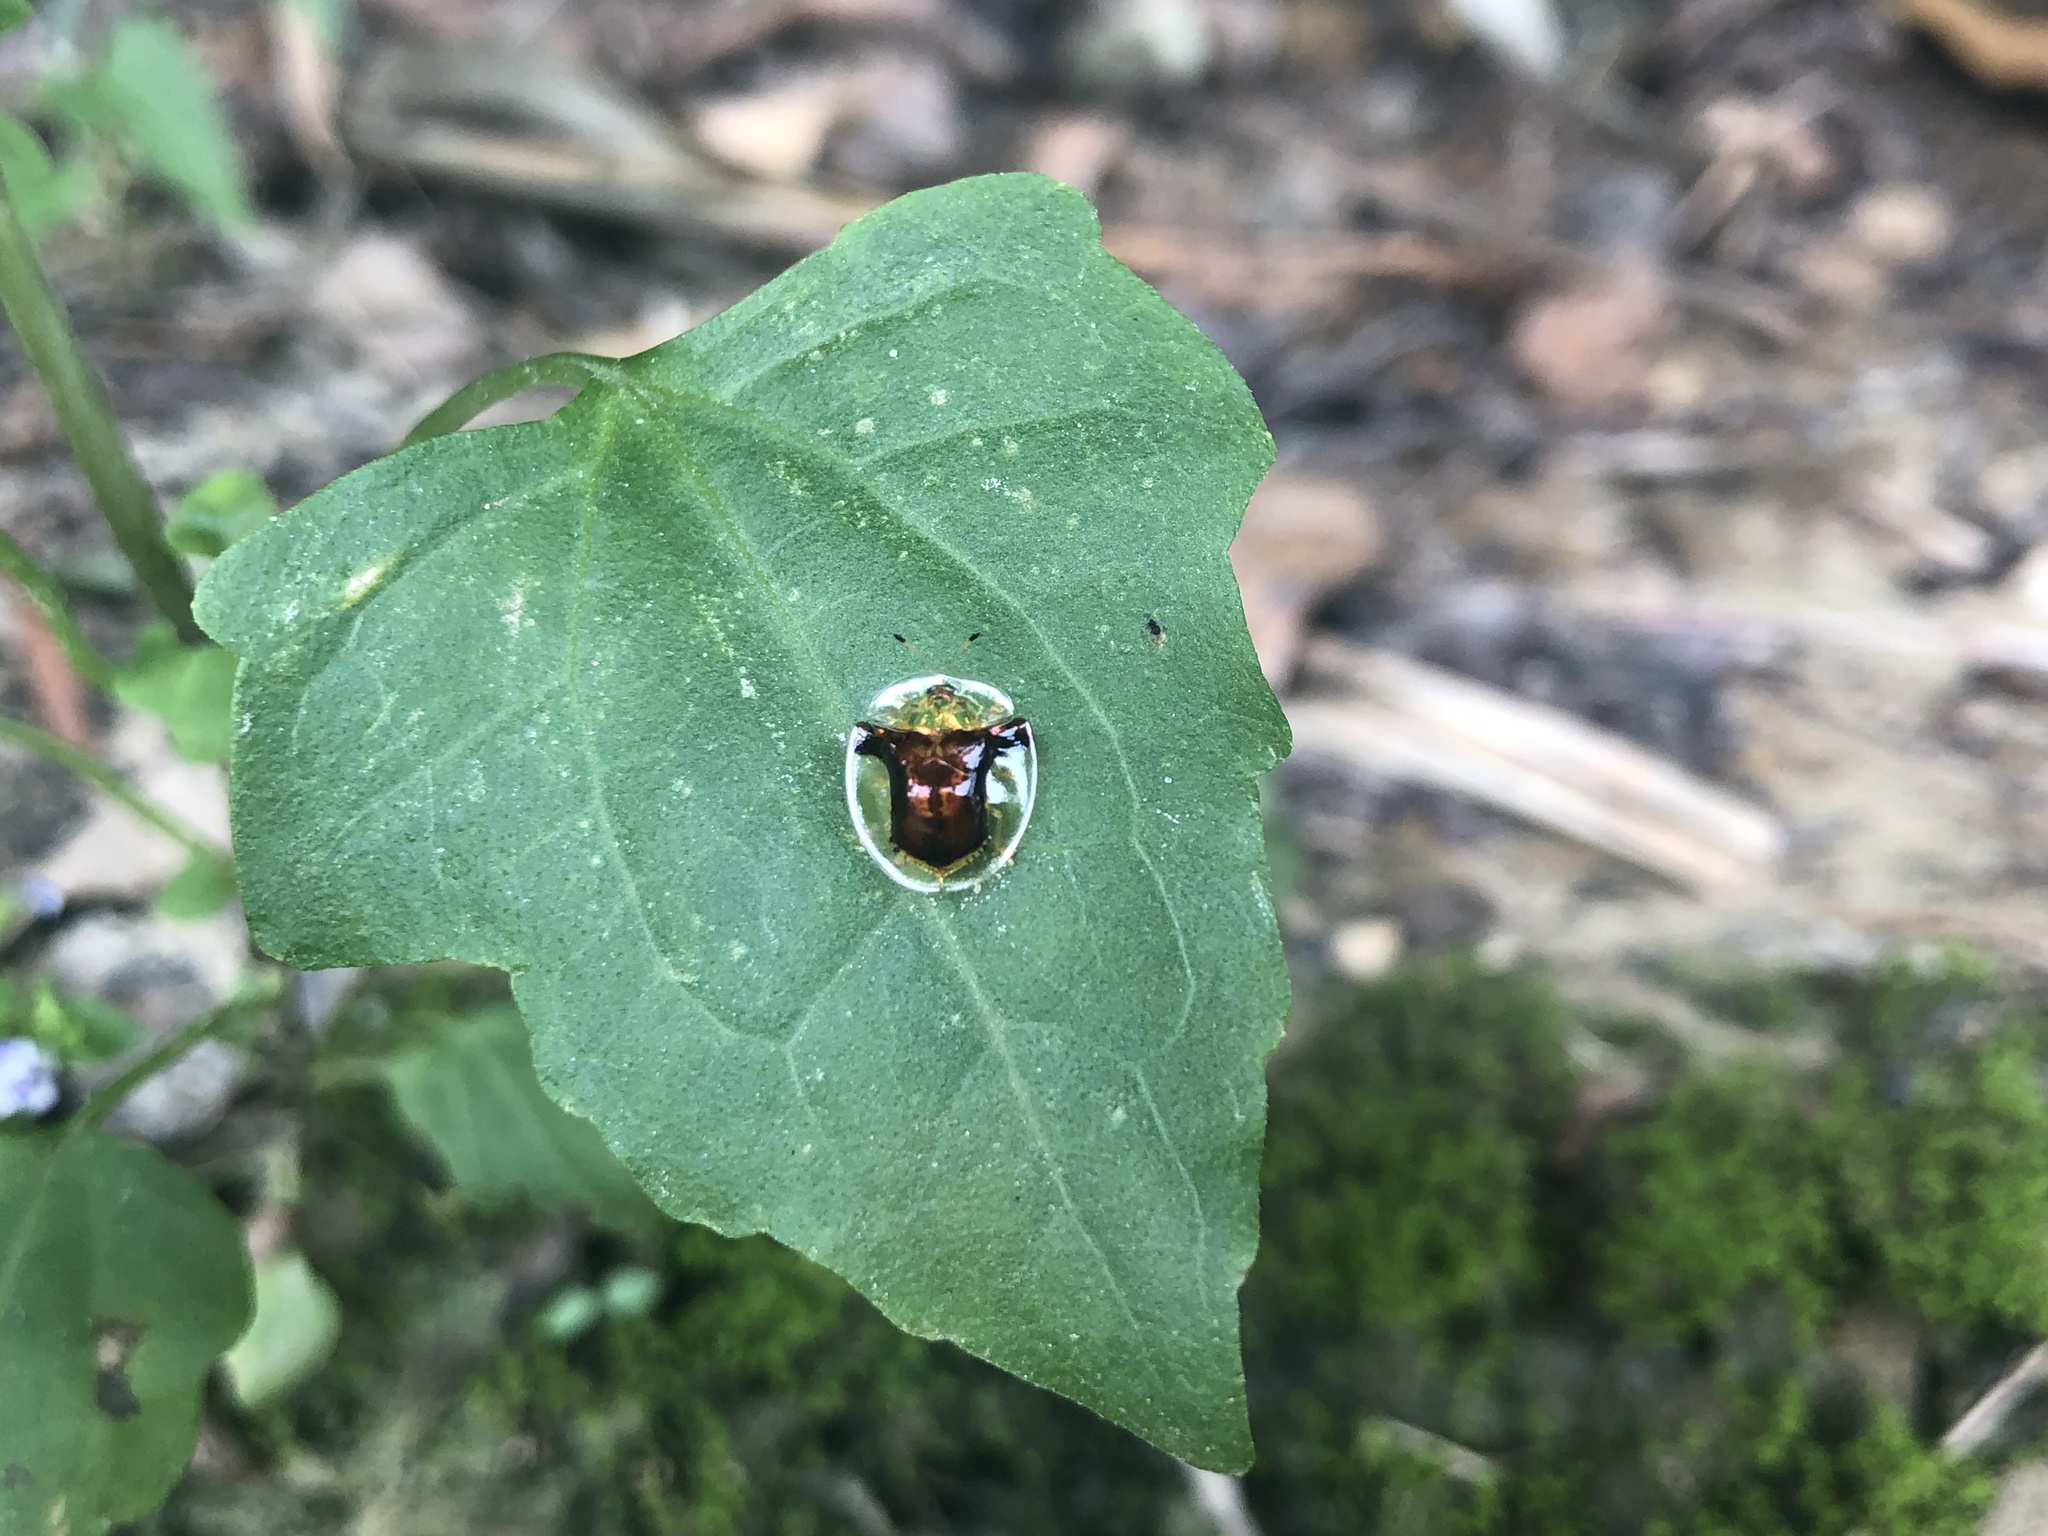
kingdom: Animalia
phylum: Arthropoda
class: Insecta
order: Coleoptera
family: Chrysomelidae
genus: Aspidimorpha
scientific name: Aspidimorpha furcata
